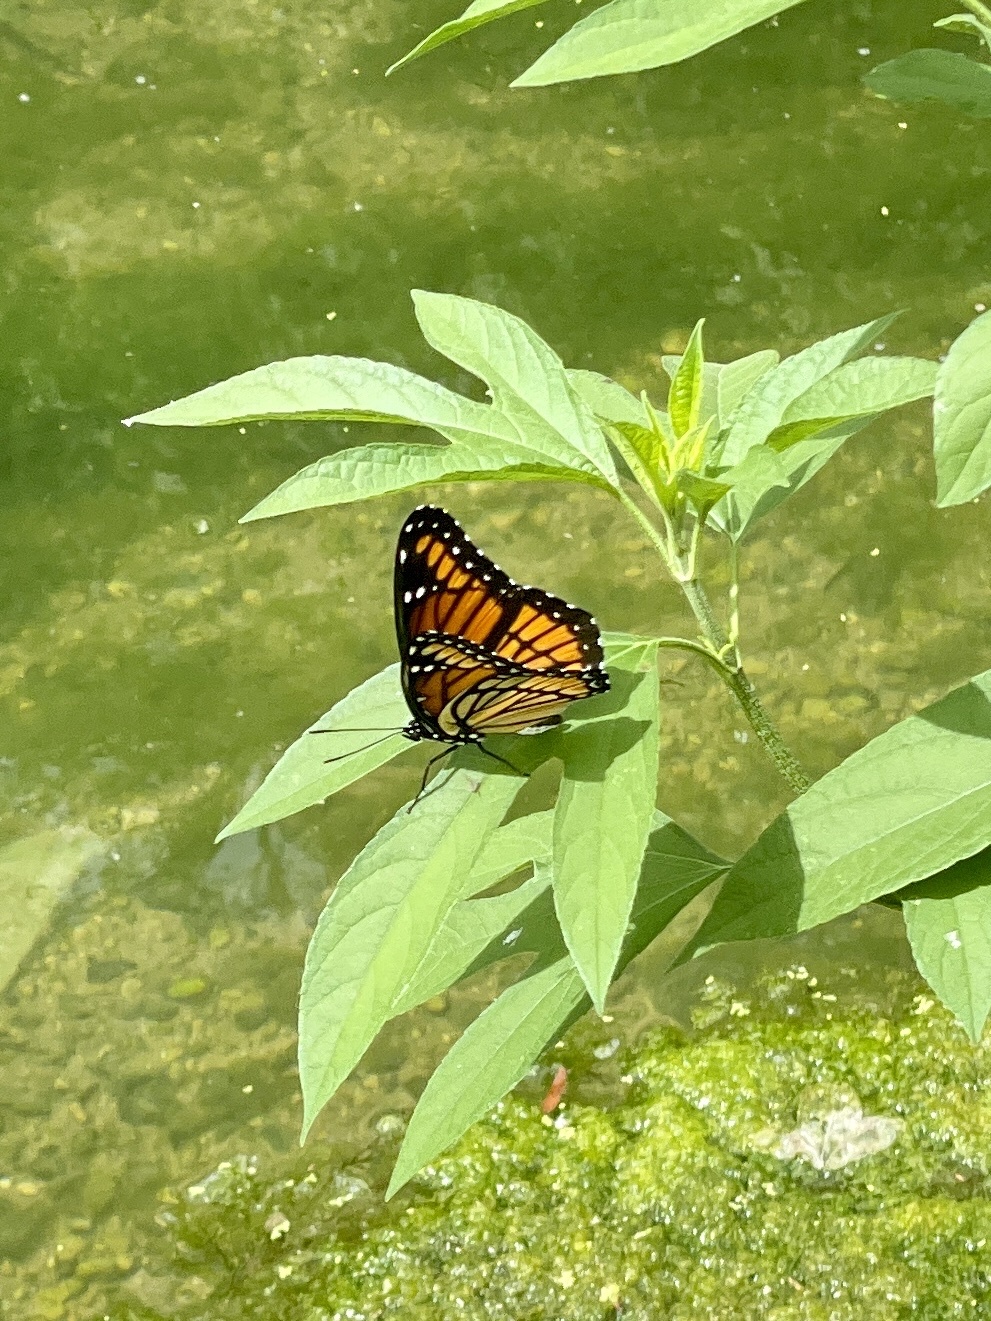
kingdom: Animalia
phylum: Arthropoda
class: Insecta
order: Lepidoptera
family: Nymphalidae
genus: Limenitis
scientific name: Limenitis archippus
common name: Viceroy
